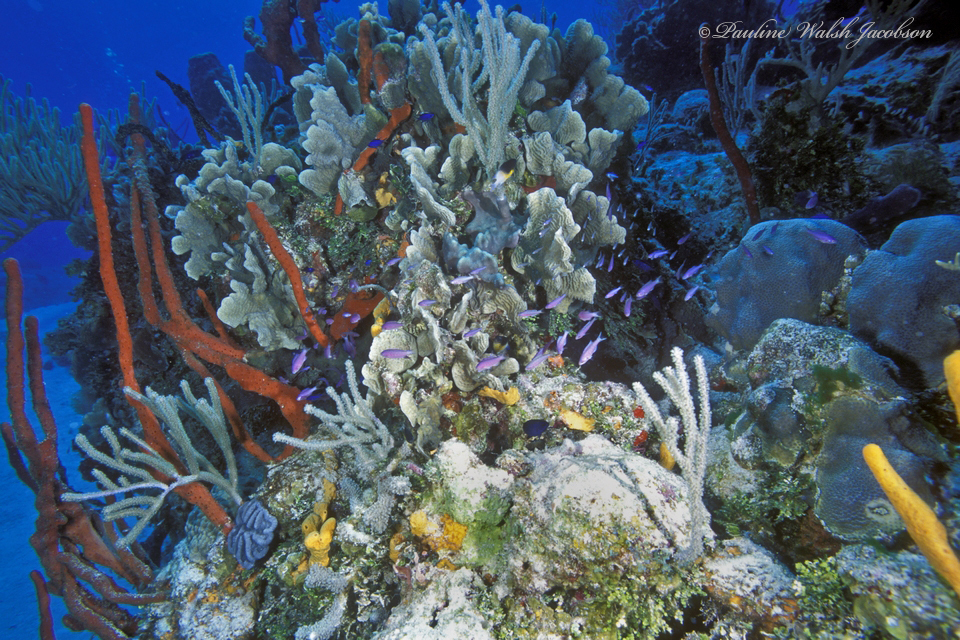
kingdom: Animalia
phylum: Cnidaria
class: Anthozoa
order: Scleractinia
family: Agariciidae
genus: Agaricia
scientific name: Agaricia agaricites
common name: Lettuce coral
